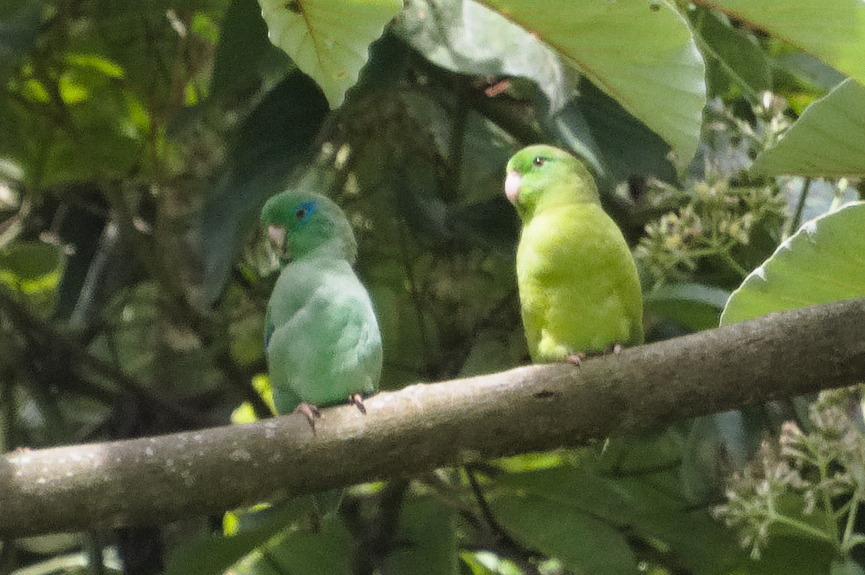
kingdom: Animalia
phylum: Chordata
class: Aves
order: Psittaciformes
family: Psittacidae
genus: Forpus
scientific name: Forpus conspicillatus
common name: Spectacled parrotlet
